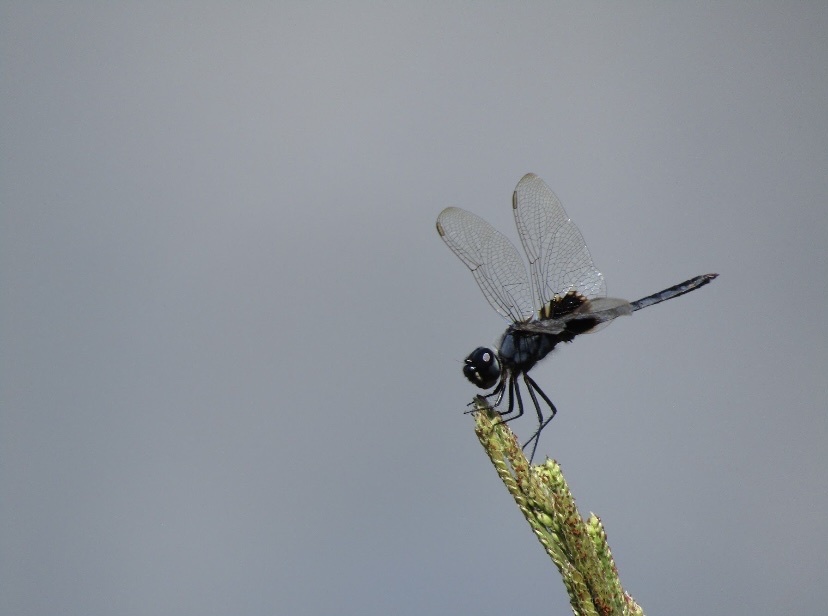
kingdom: Animalia
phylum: Arthropoda
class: Insecta
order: Odonata
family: Libellulidae
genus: Urothemis
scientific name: Urothemis edwardsii
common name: Blue basker
